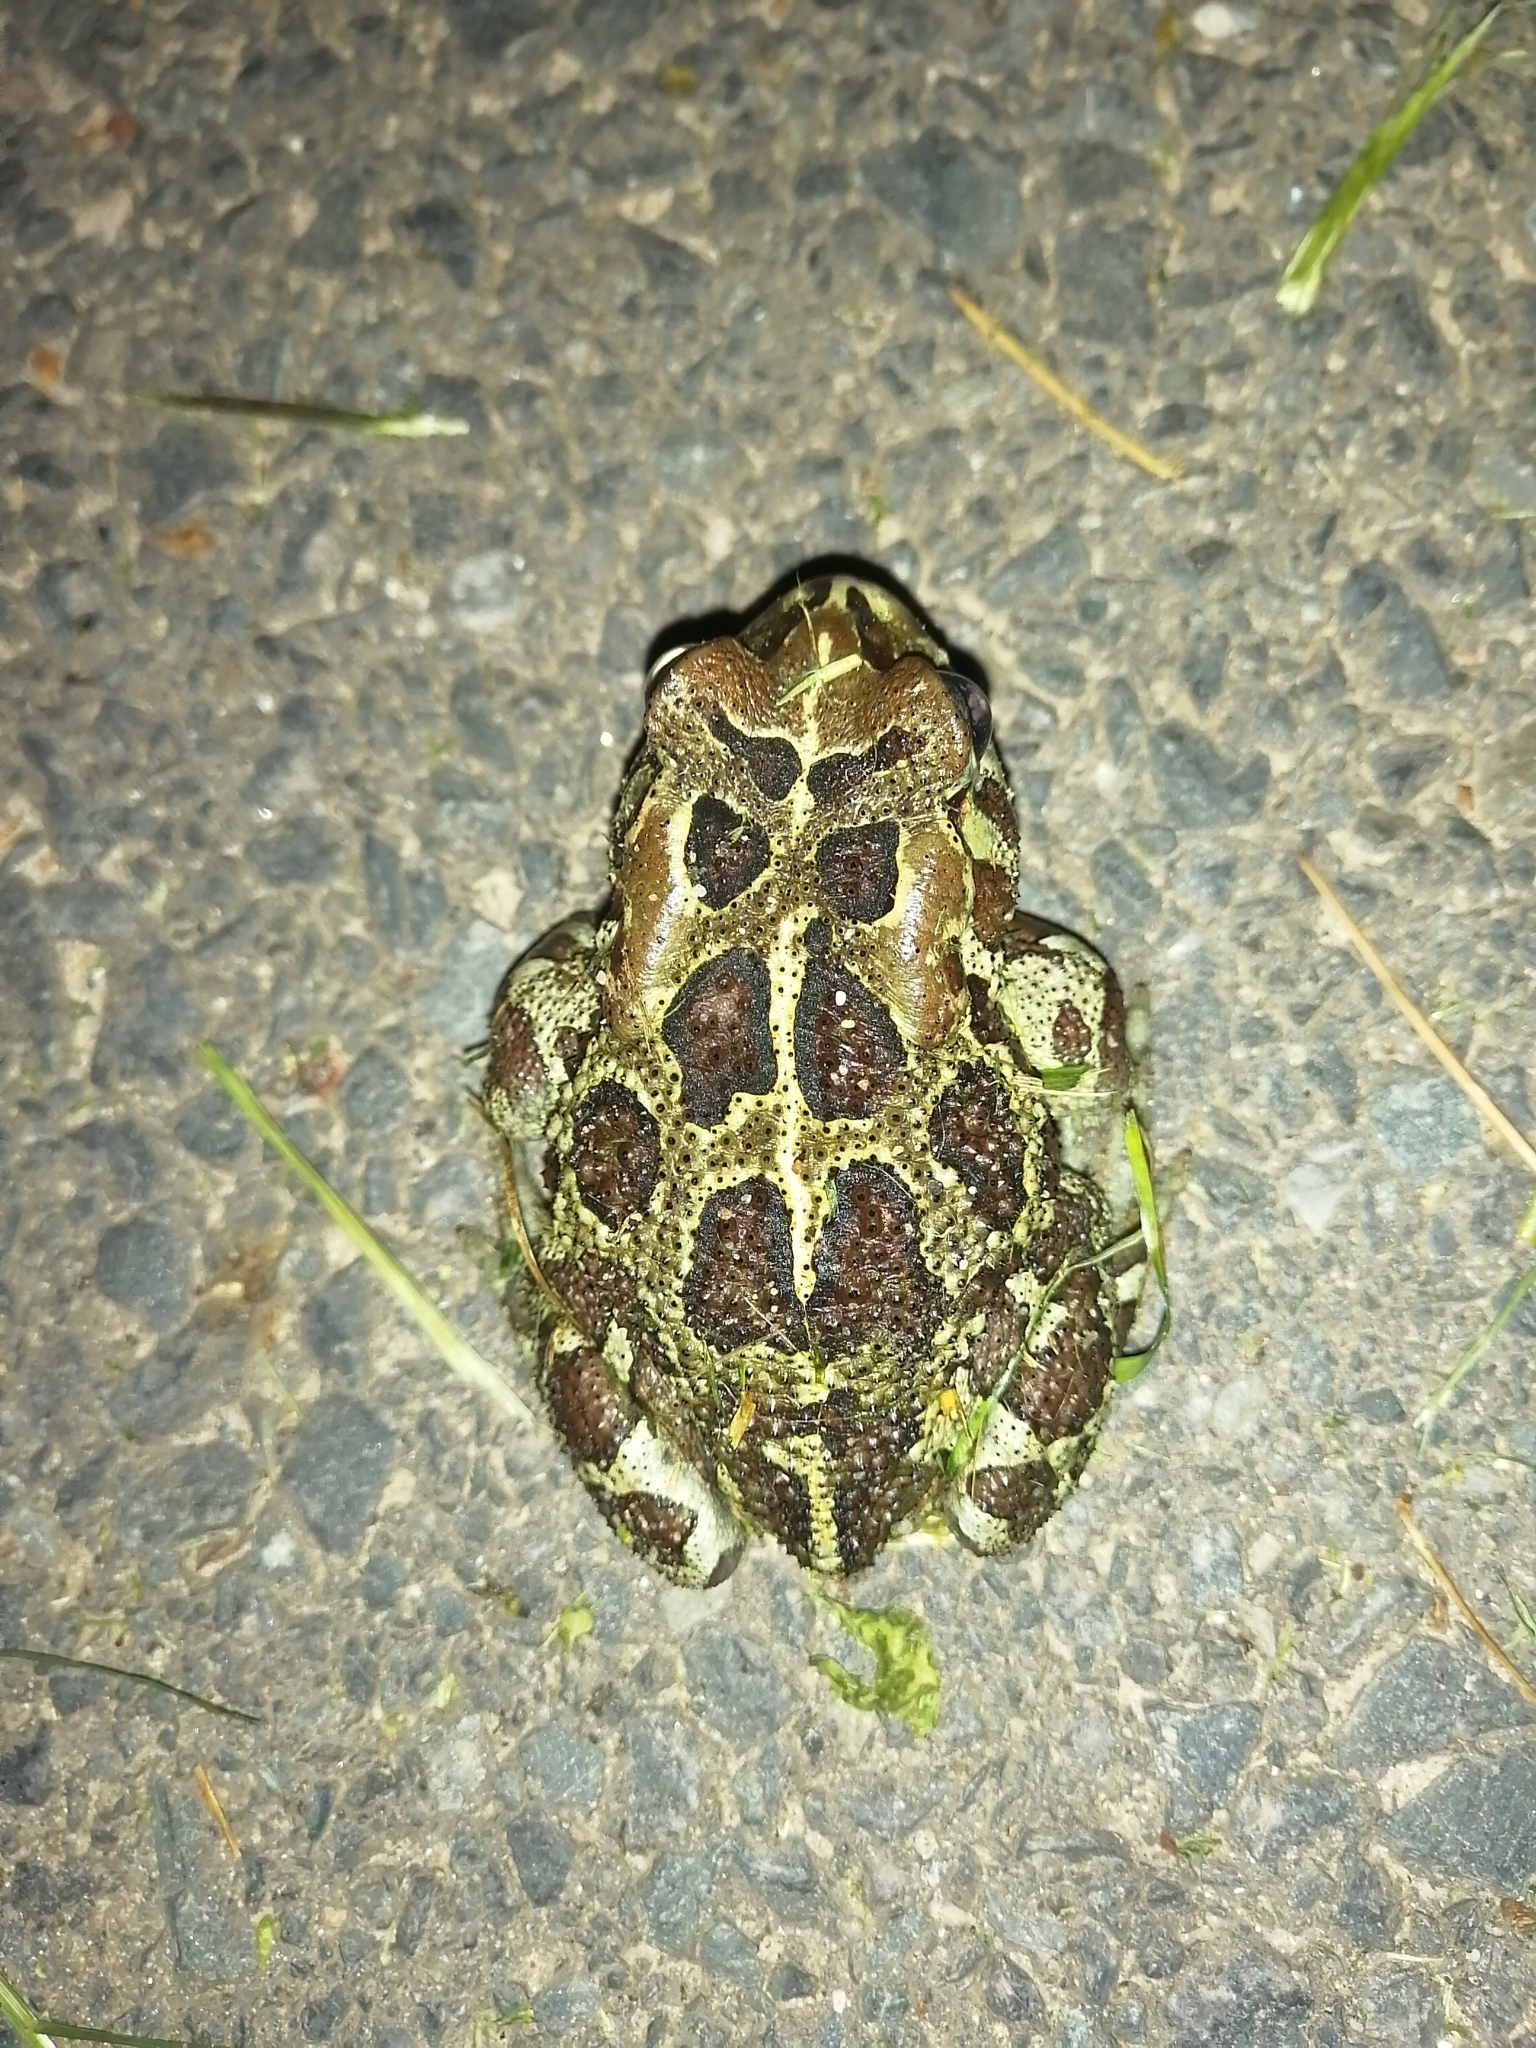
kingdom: Animalia
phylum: Chordata
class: Amphibia
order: Anura
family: Bufonidae
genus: Sclerophrys
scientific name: Sclerophrys pantherina
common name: Panther toad
